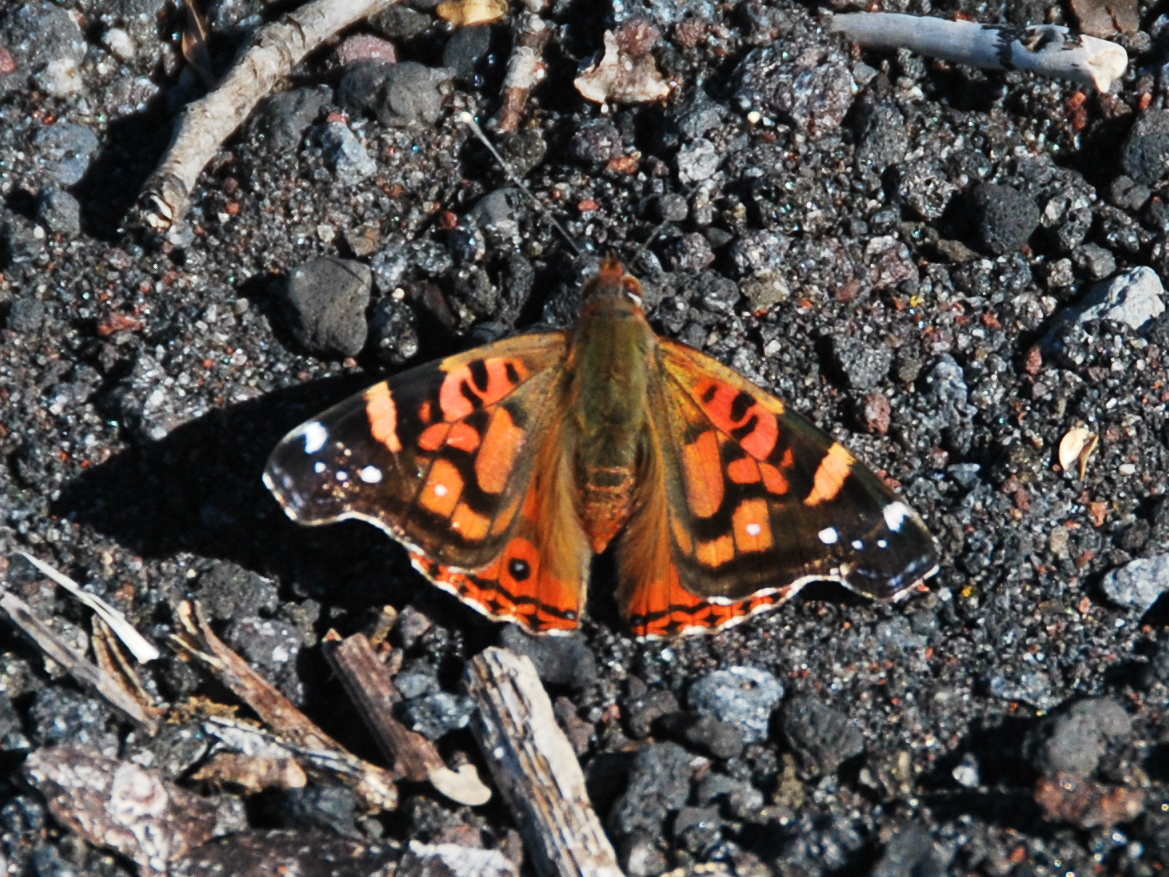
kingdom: Animalia
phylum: Arthropoda
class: Insecta
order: Lepidoptera
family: Nymphalidae
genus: Vanessa
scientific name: Vanessa terpsichore
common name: Chilean lady
